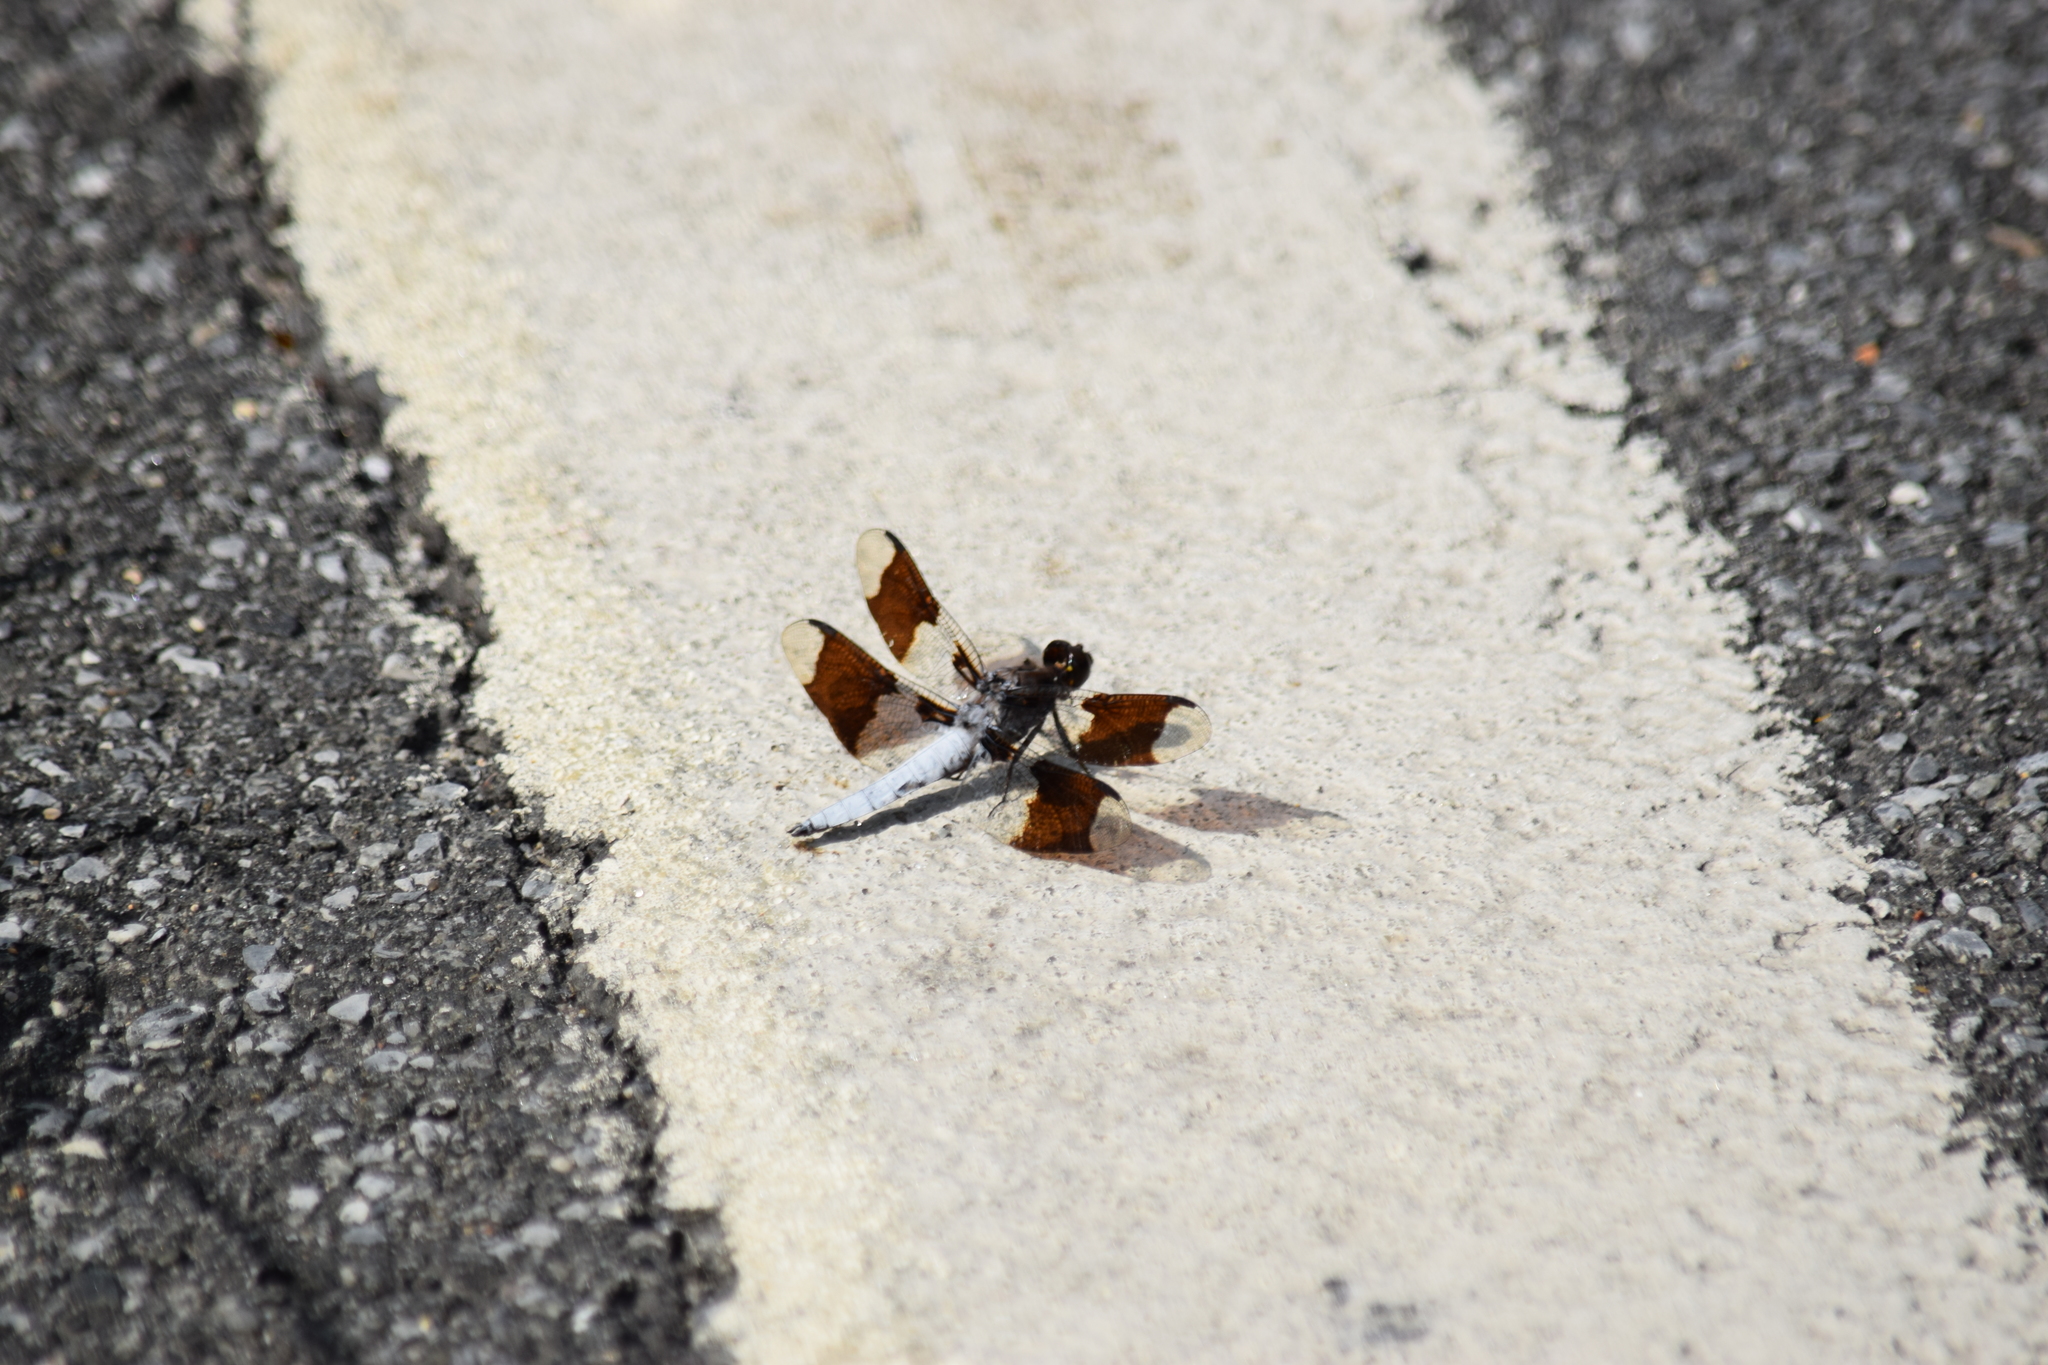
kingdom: Animalia
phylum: Arthropoda
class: Insecta
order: Odonata
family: Libellulidae
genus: Plathemis
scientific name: Plathemis lydia
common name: Common whitetail
